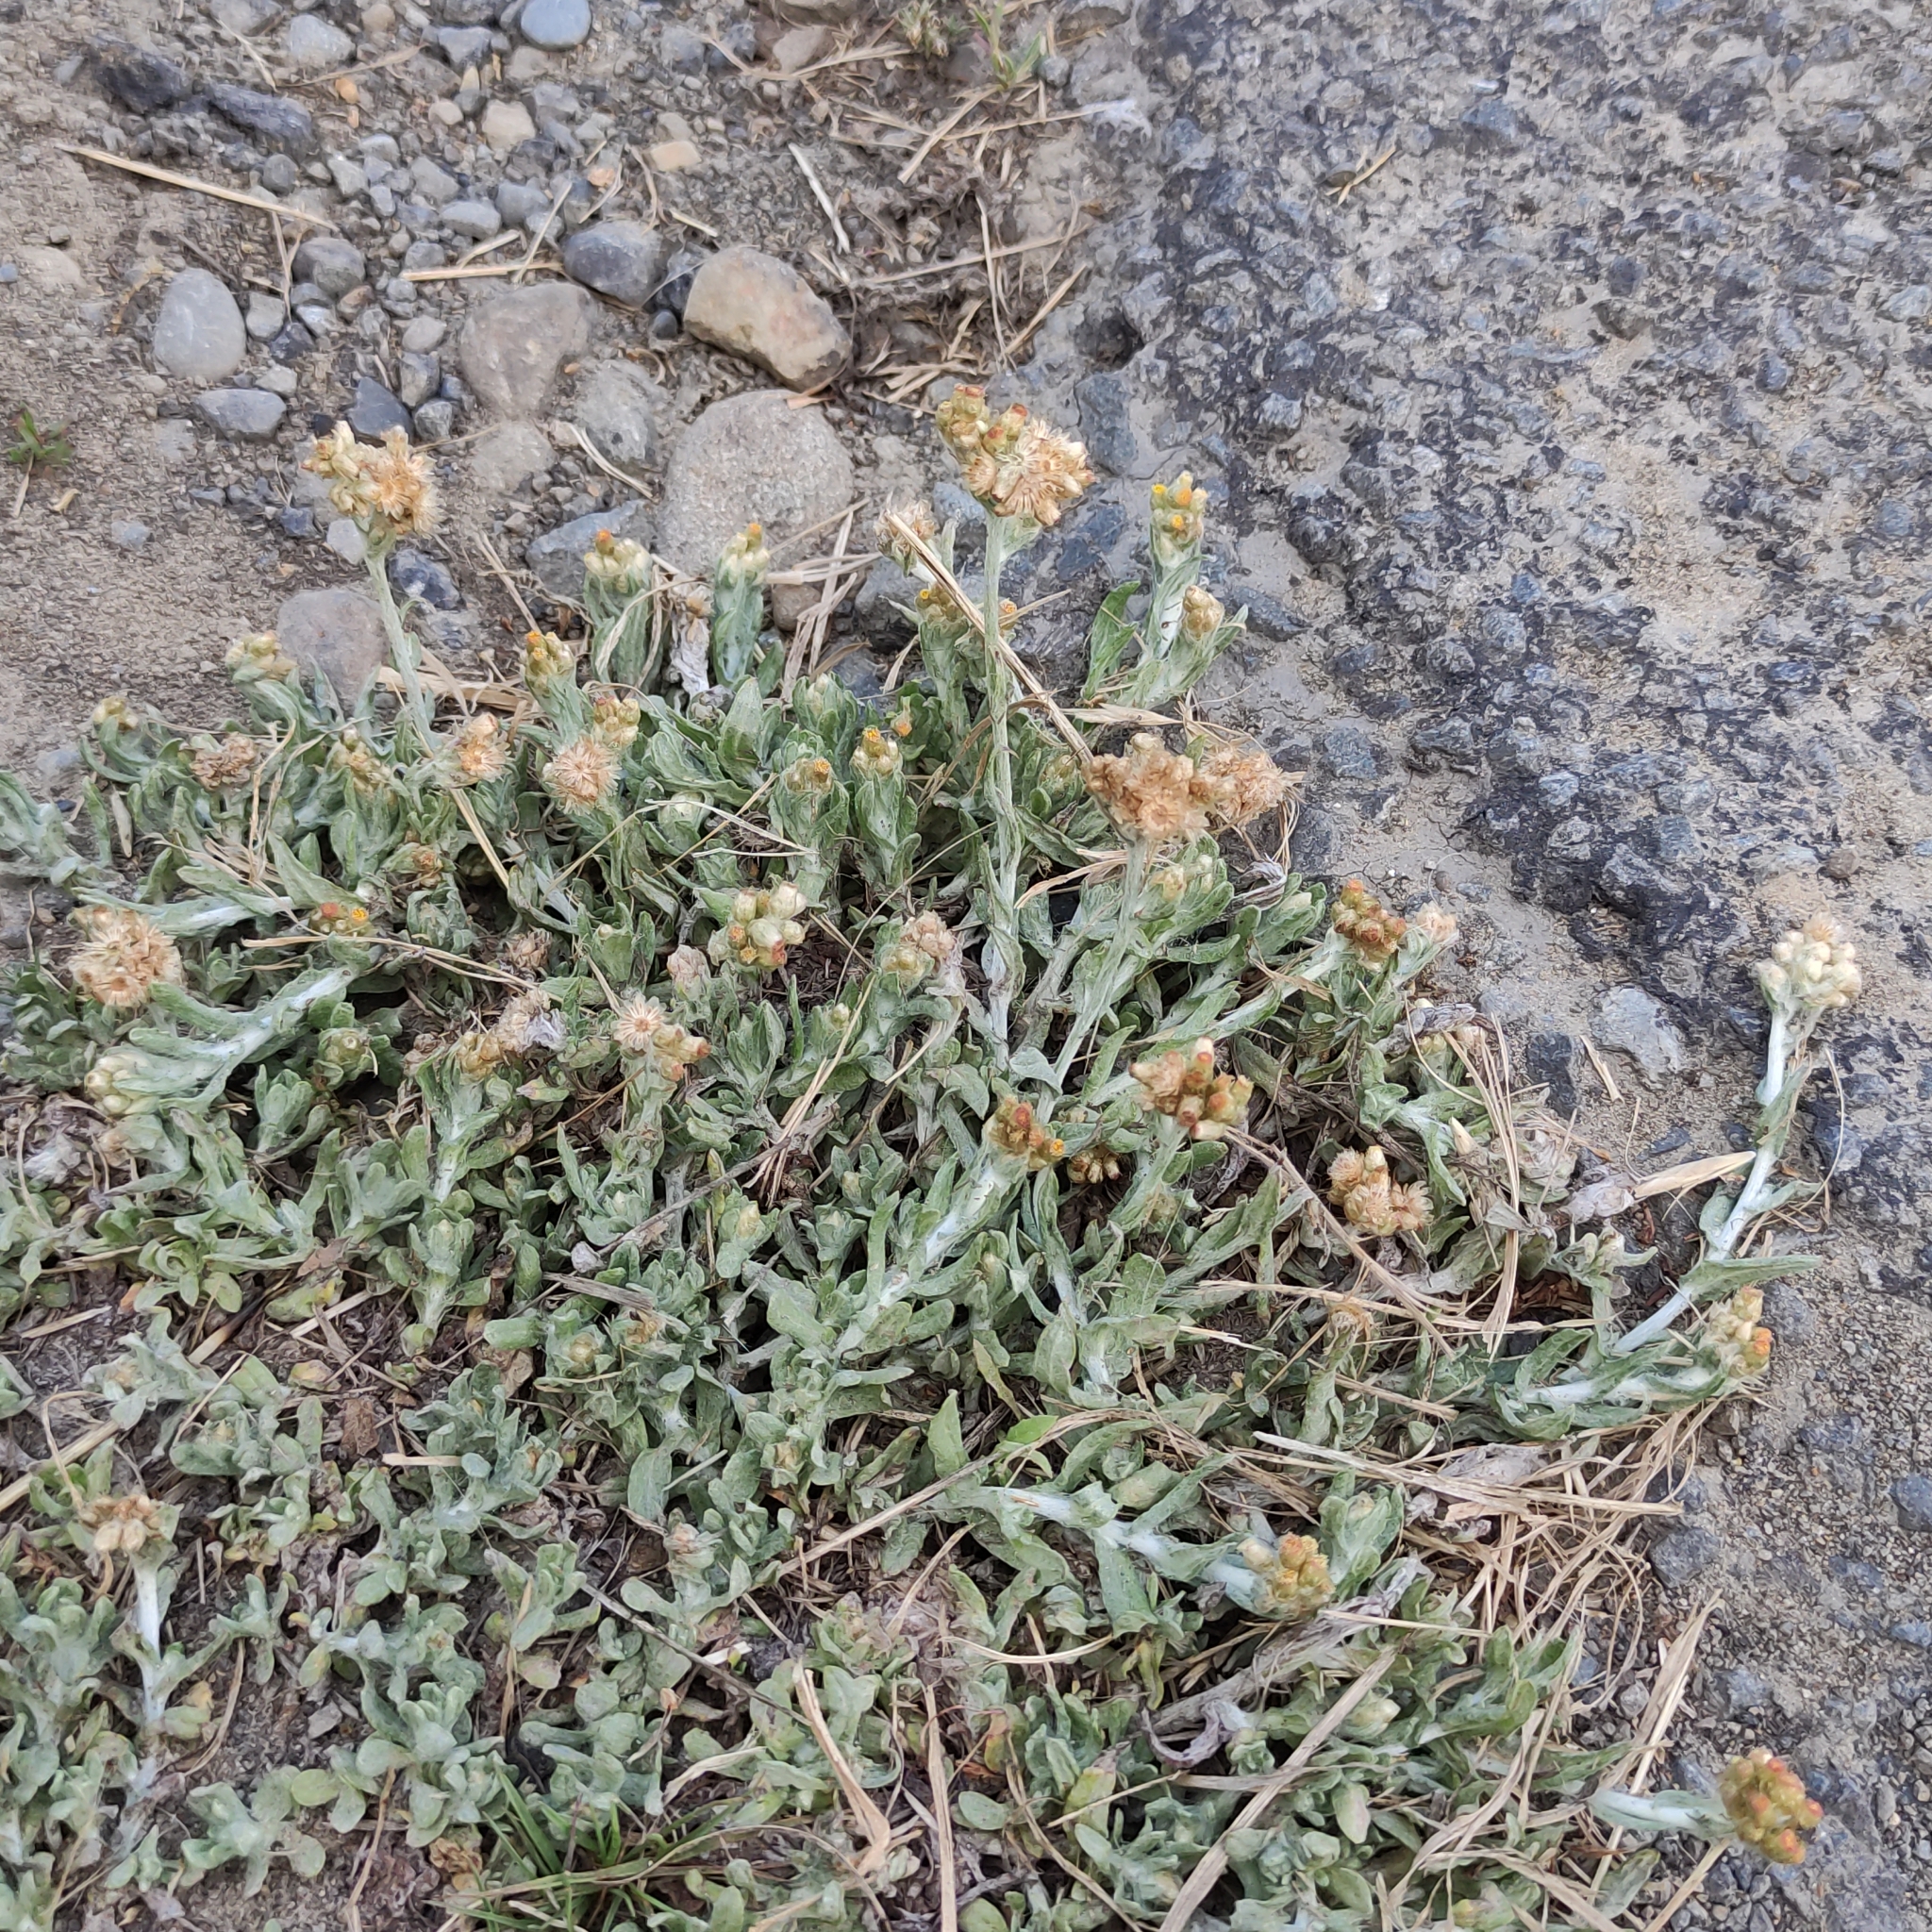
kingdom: Plantae
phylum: Tracheophyta
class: Magnoliopsida
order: Asterales
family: Asteraceae
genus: Helichrysum
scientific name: Helichrysum luteoalbum
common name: Daisy
